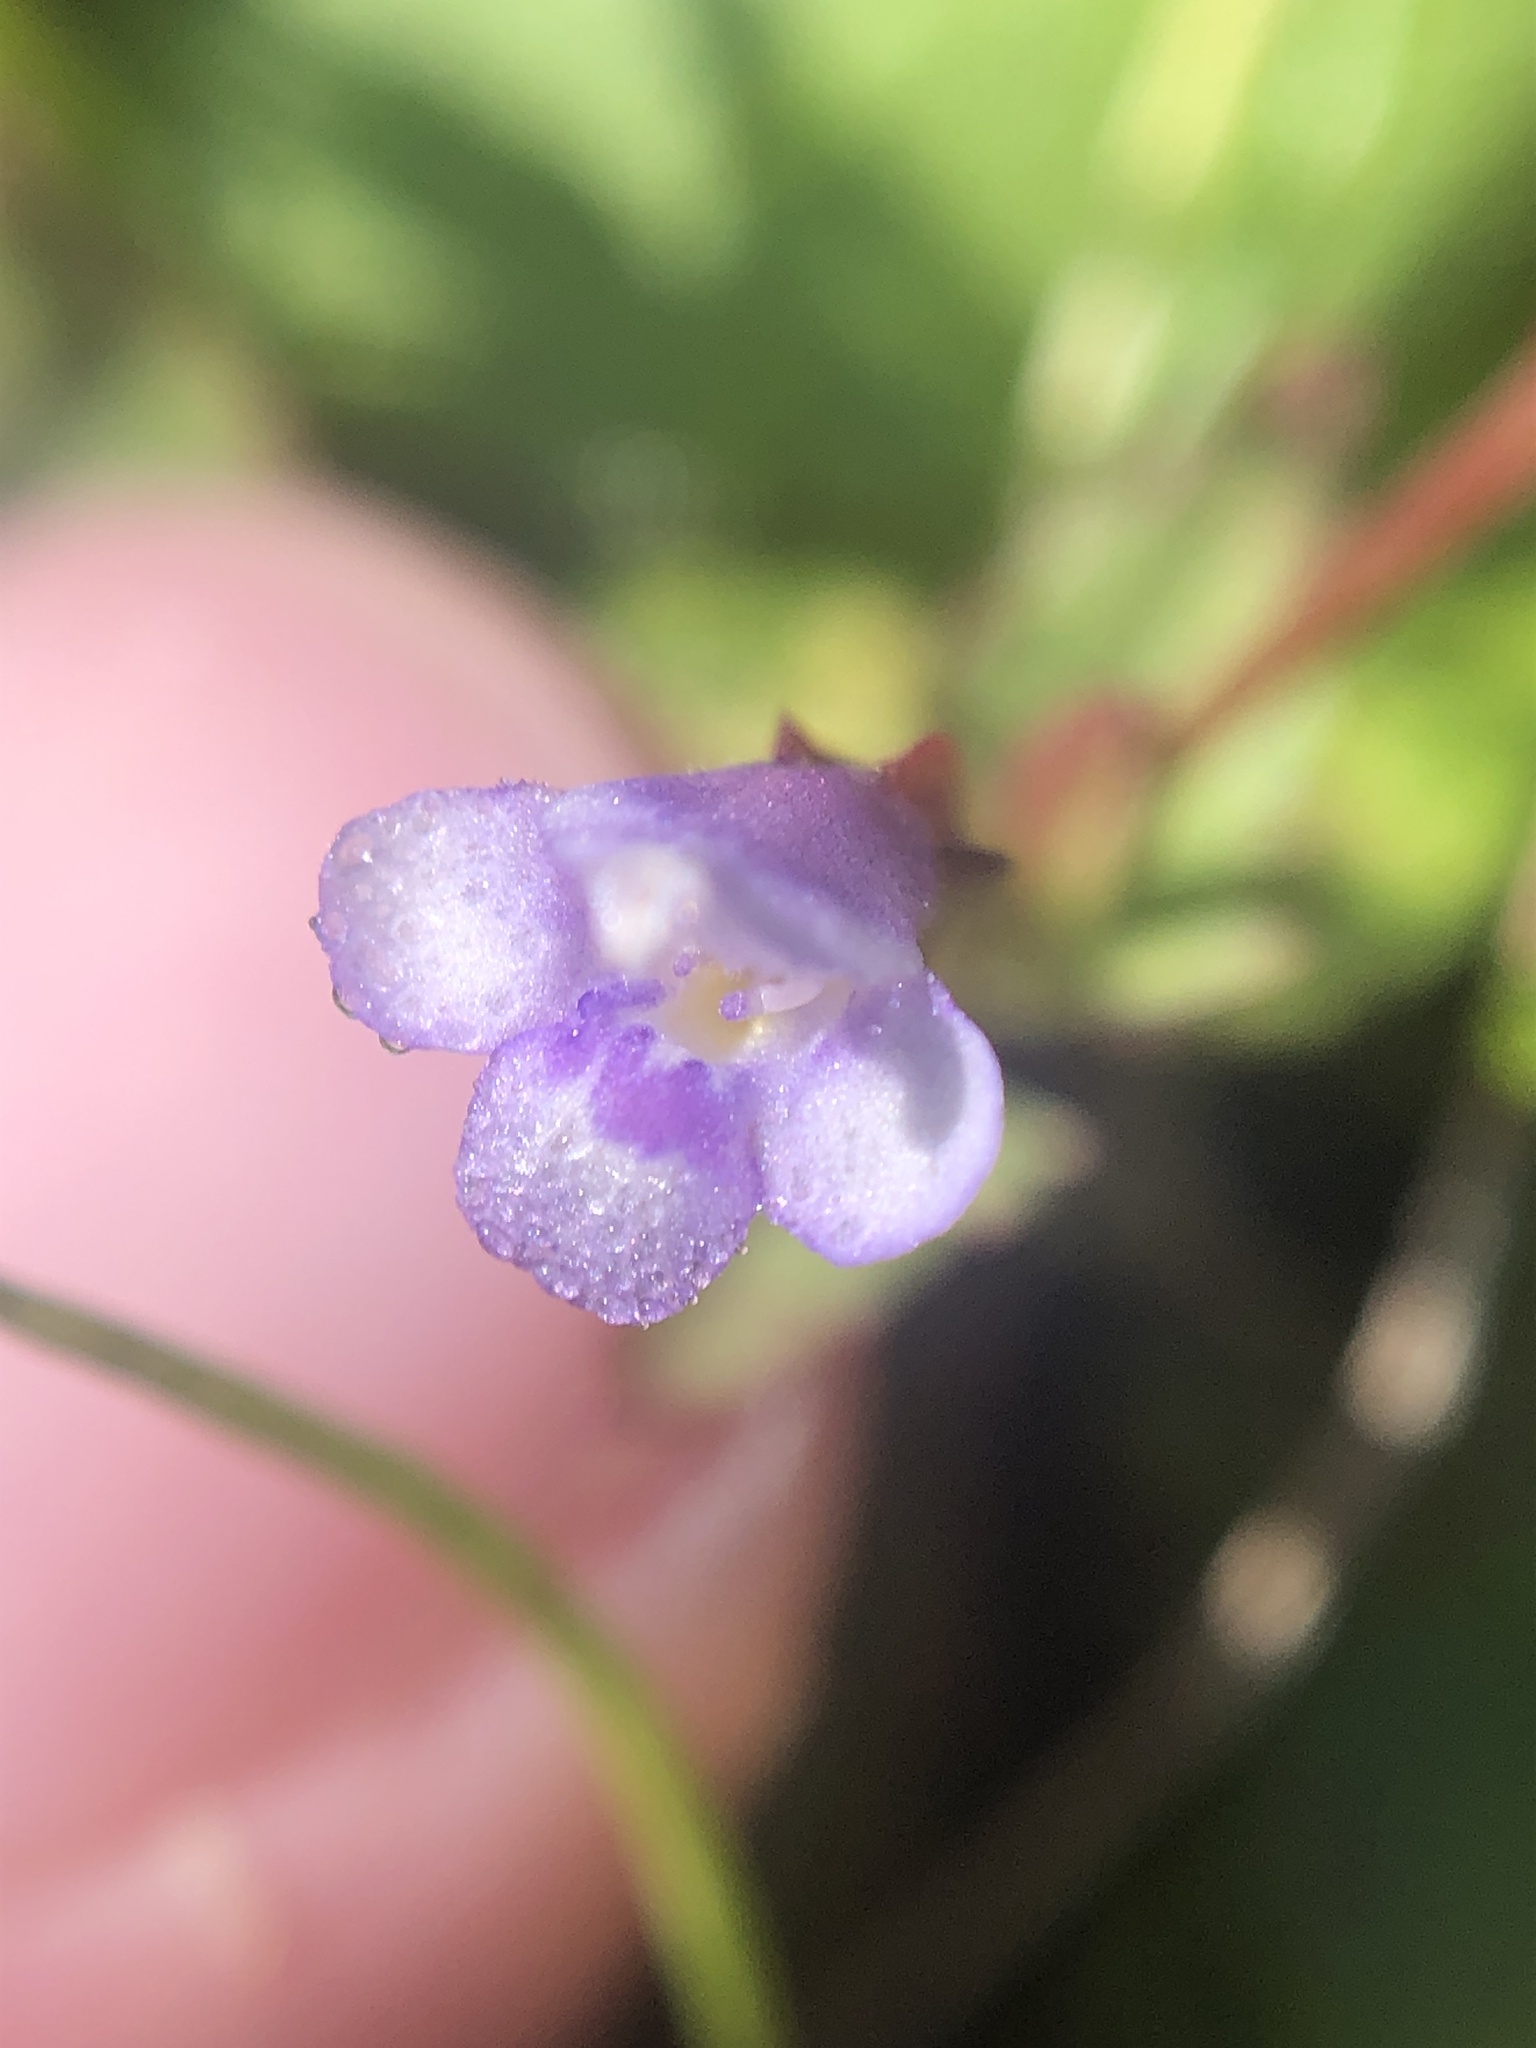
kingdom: Plantae
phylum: Tracheophyta
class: Magnoliopsida
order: Lamiales
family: Linderniaceae
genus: Torenia
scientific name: Torenia crustacea
